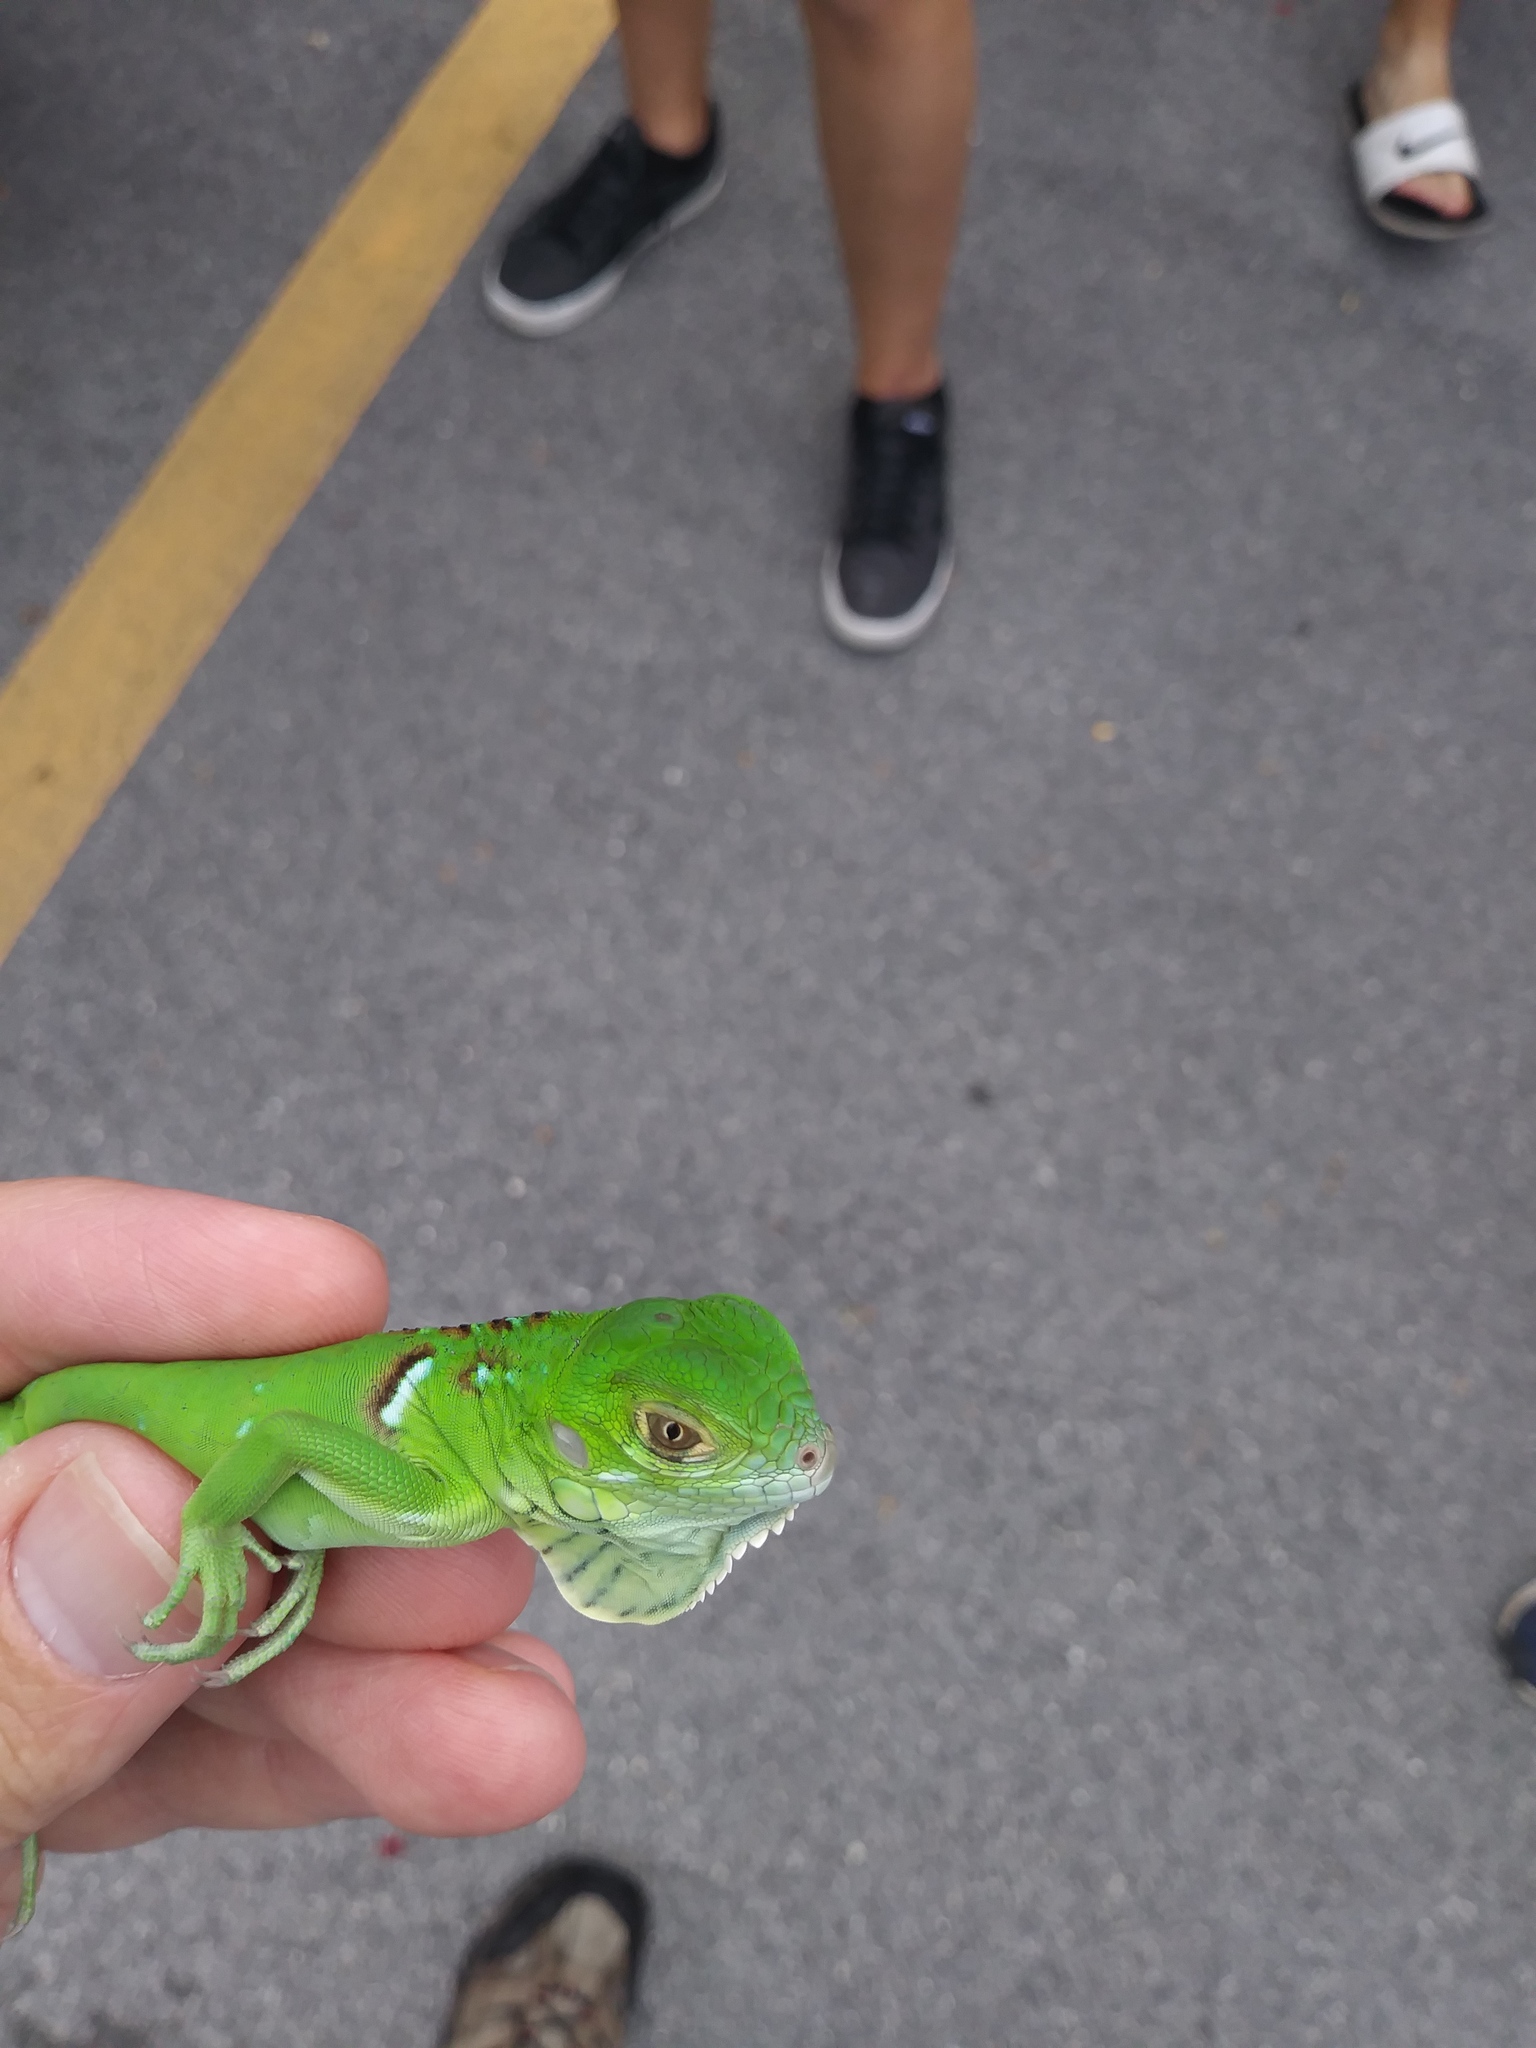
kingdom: Animalia
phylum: Chordata
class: Squamata
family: Iguanidae
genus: Iguana
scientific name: Iguana iguana
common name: Green iguana
